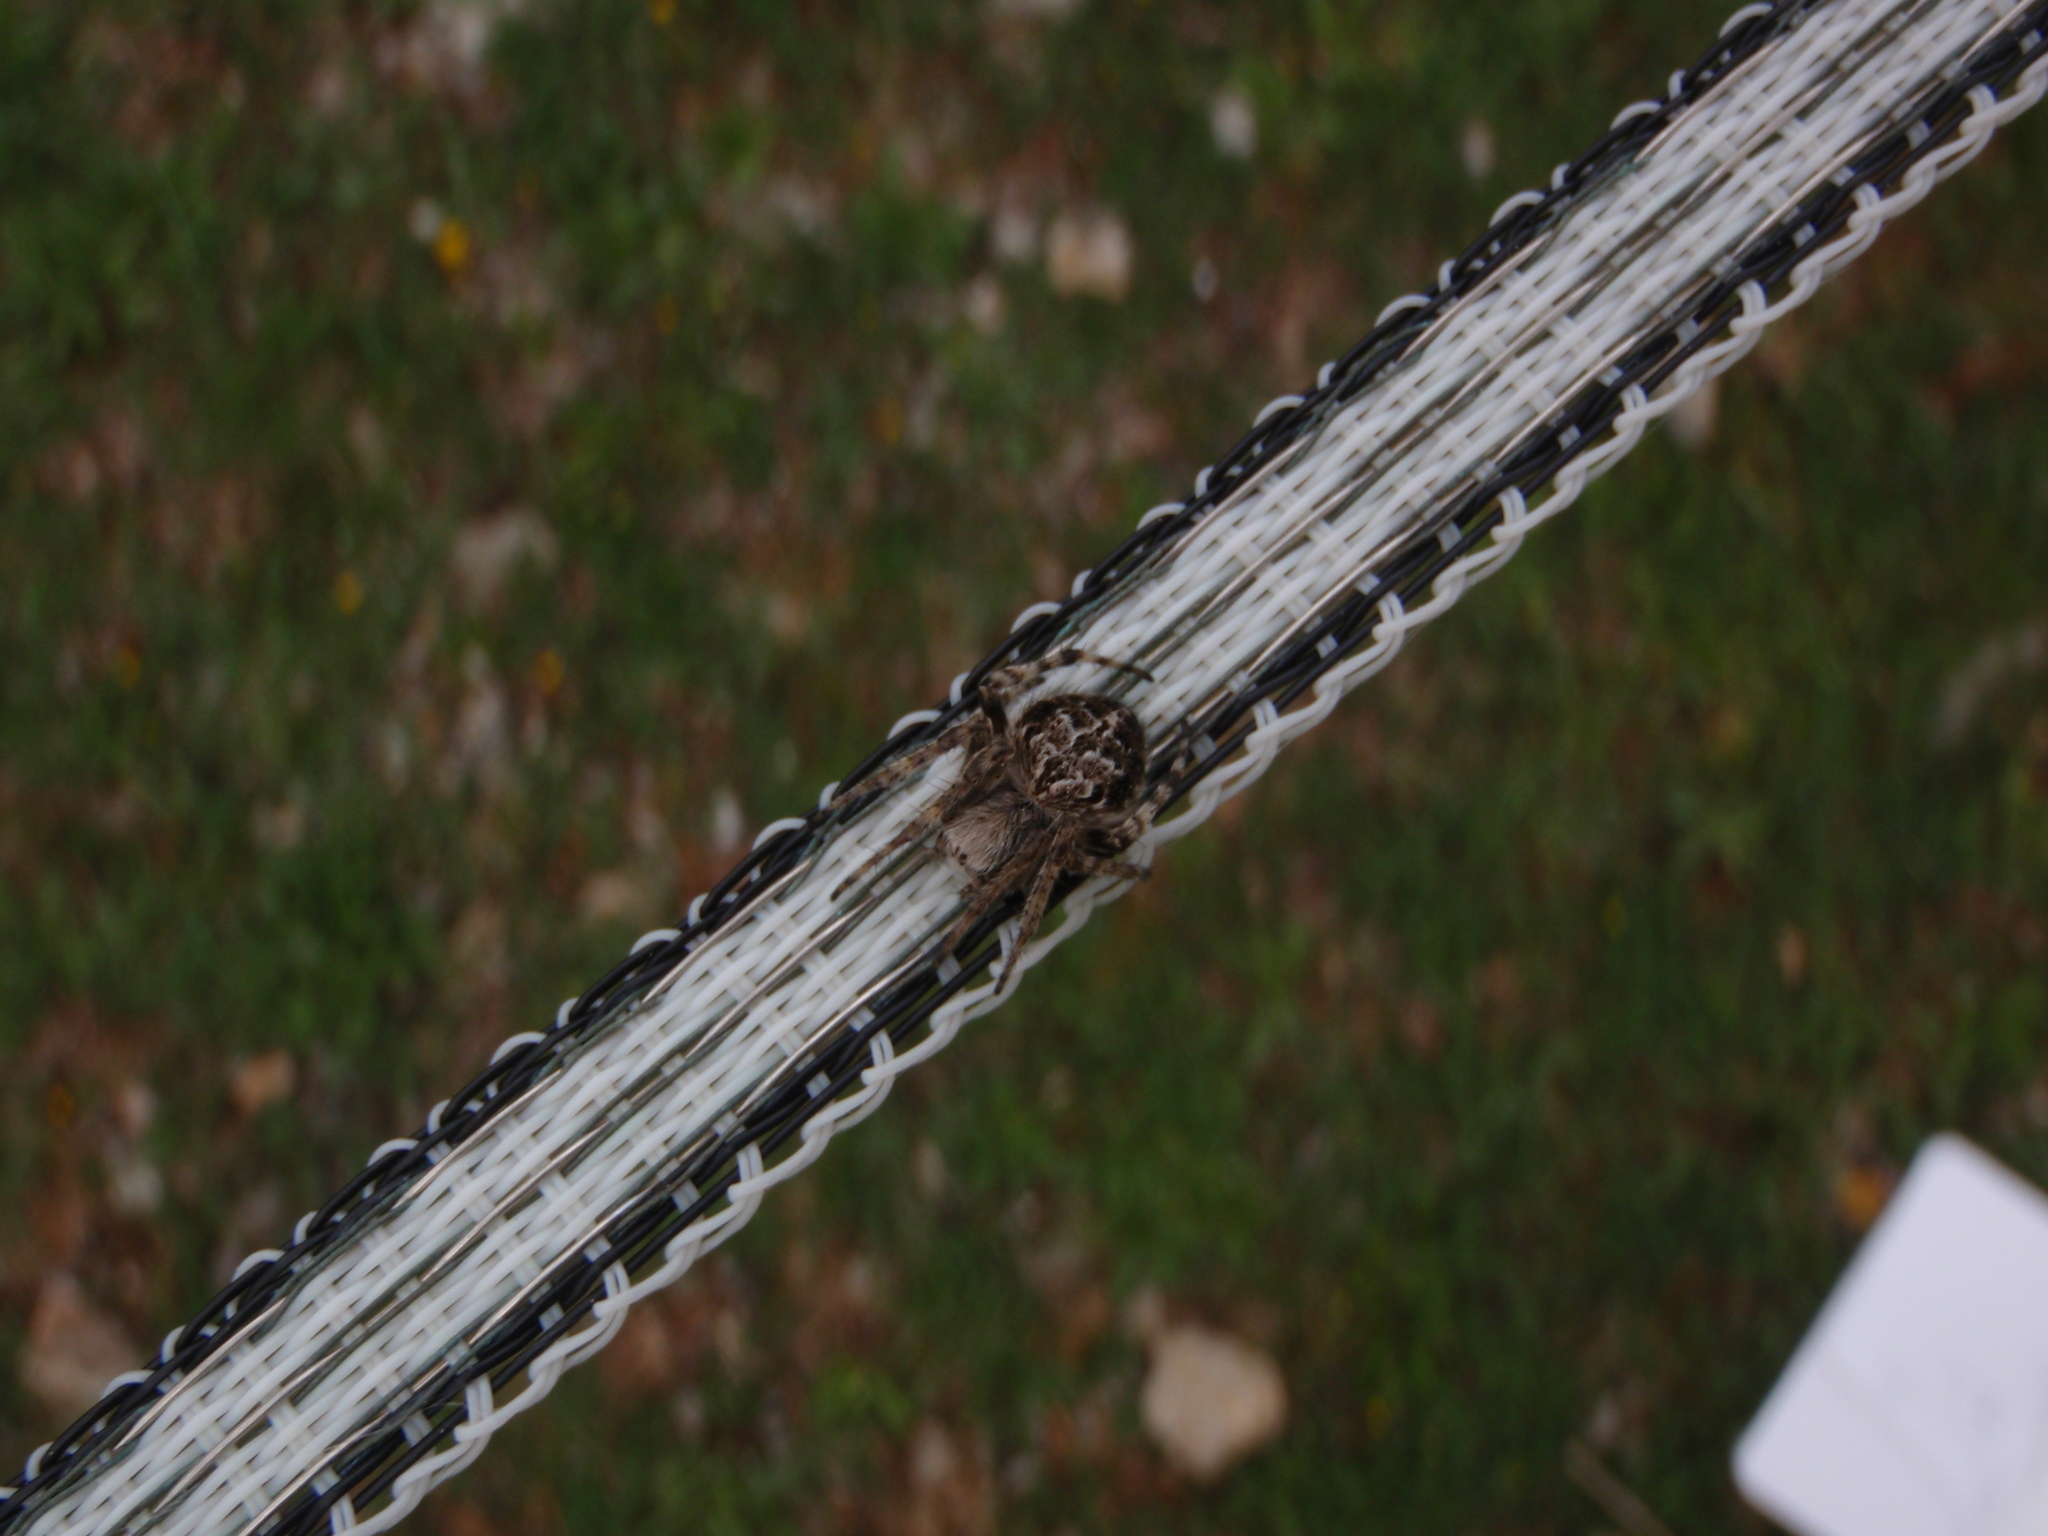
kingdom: Animalia
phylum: Arthropoda
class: Arachnida
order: Araneae
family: Araneidae
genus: Agalenatea
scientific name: Agalenatea redii
